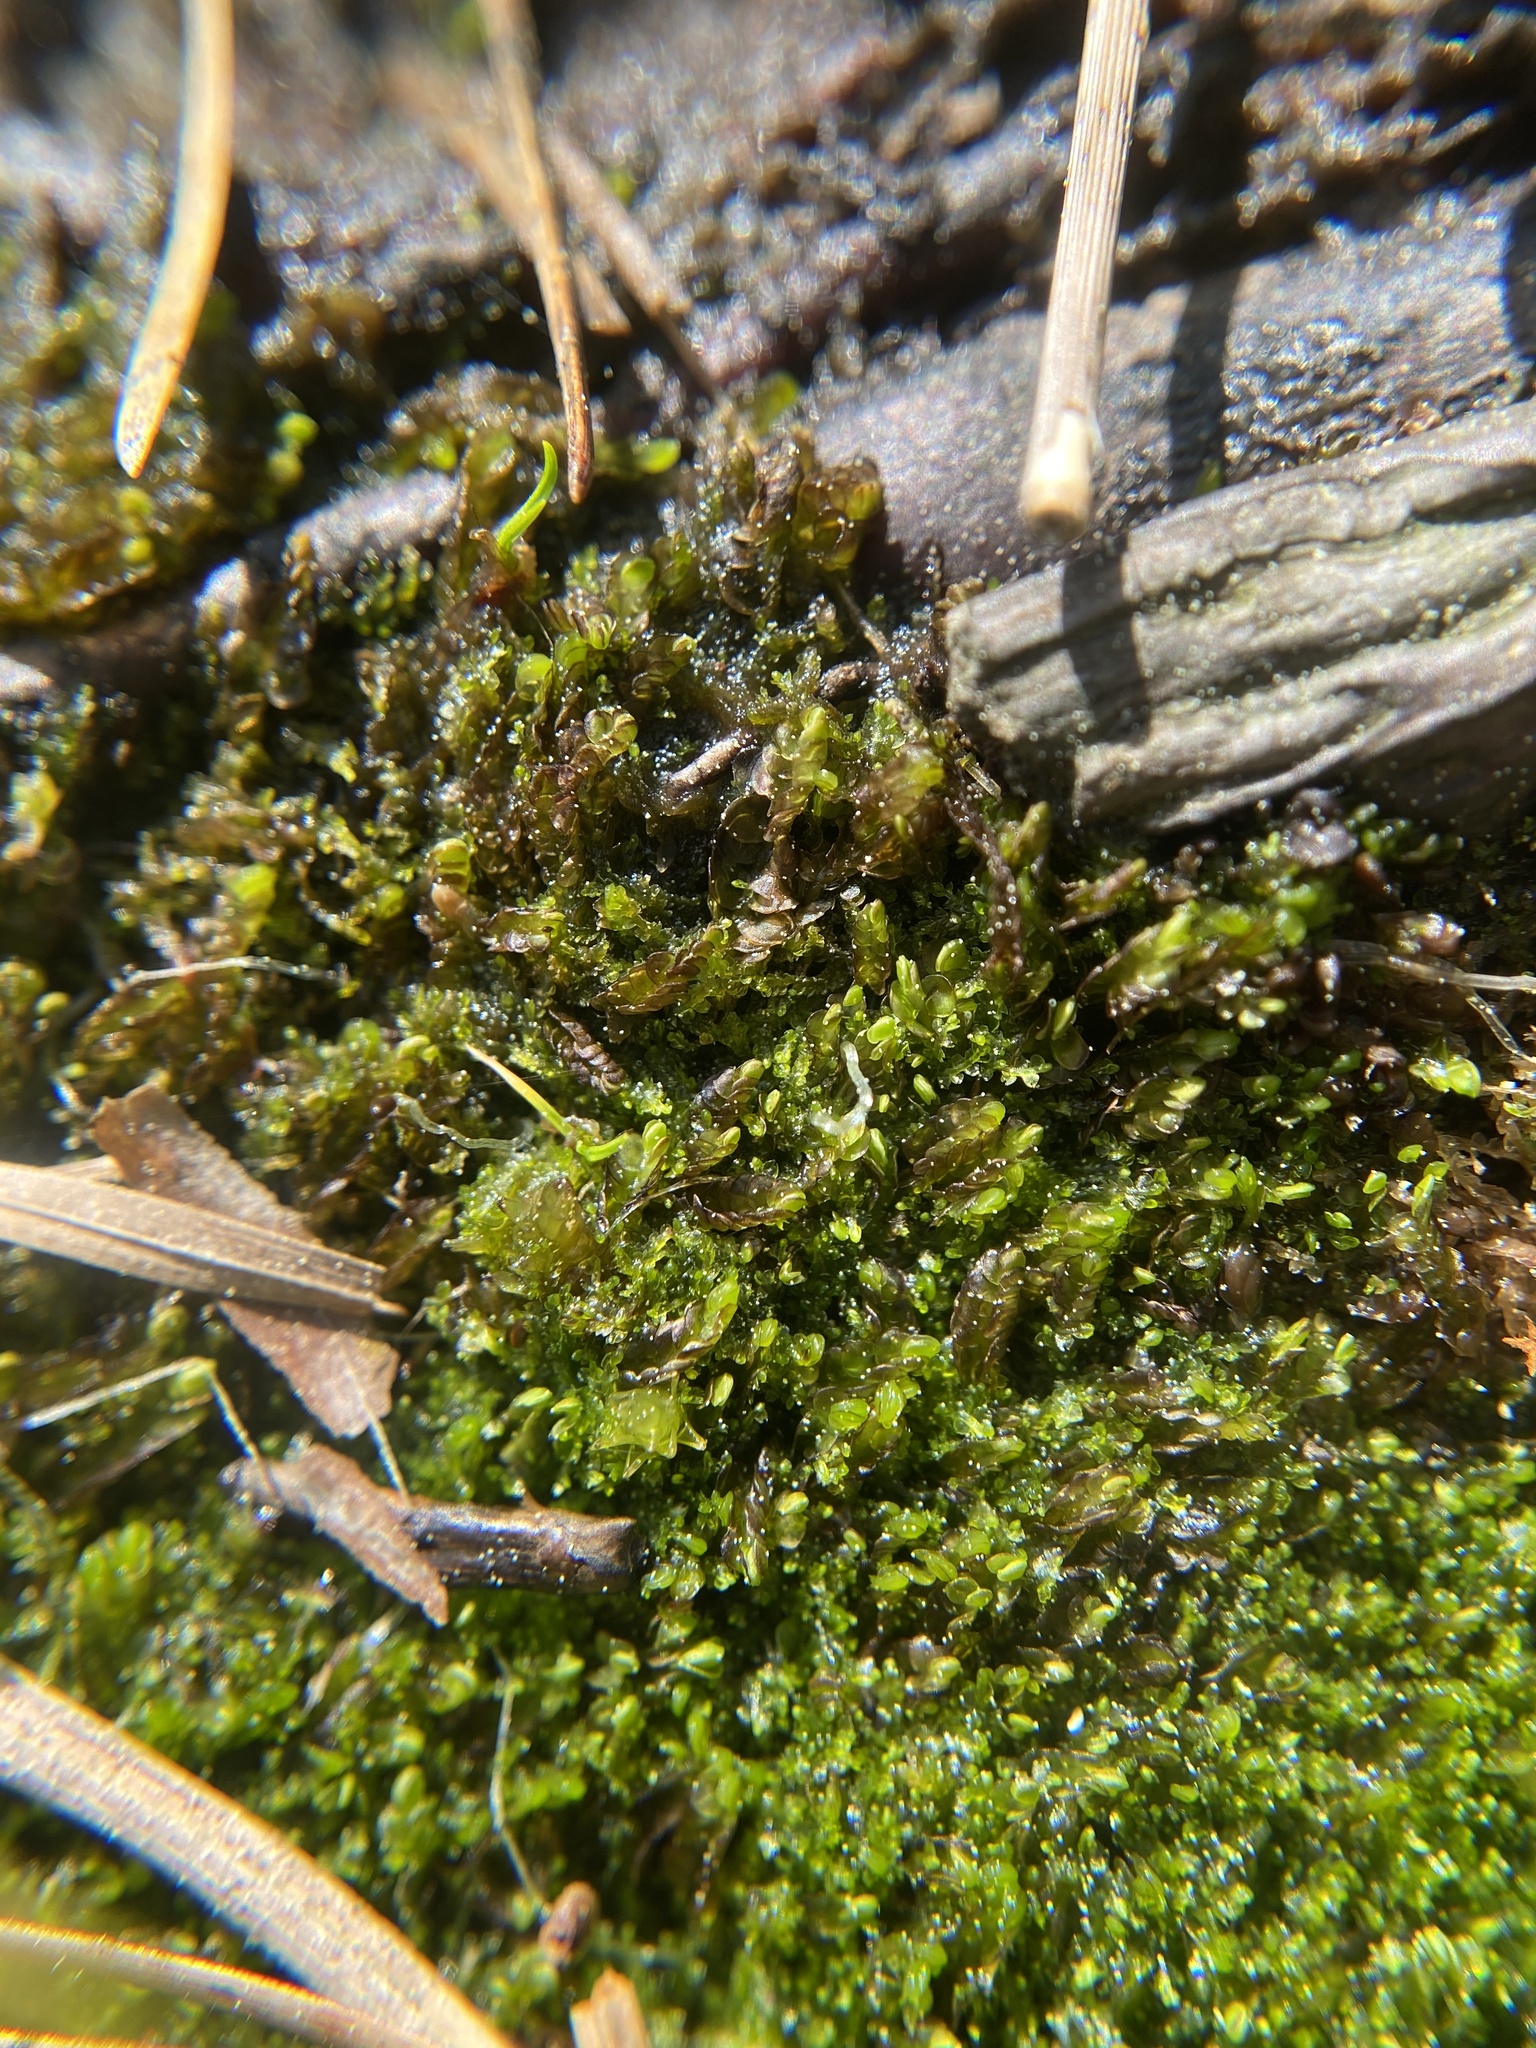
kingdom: Plantae
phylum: Marchantiophyta
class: Jungermanniopsida
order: Jungermanniales
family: Cephaloziaceae
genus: Odontoschisma
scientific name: Odontoschisma sphagni
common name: Bog-moss flapwort
